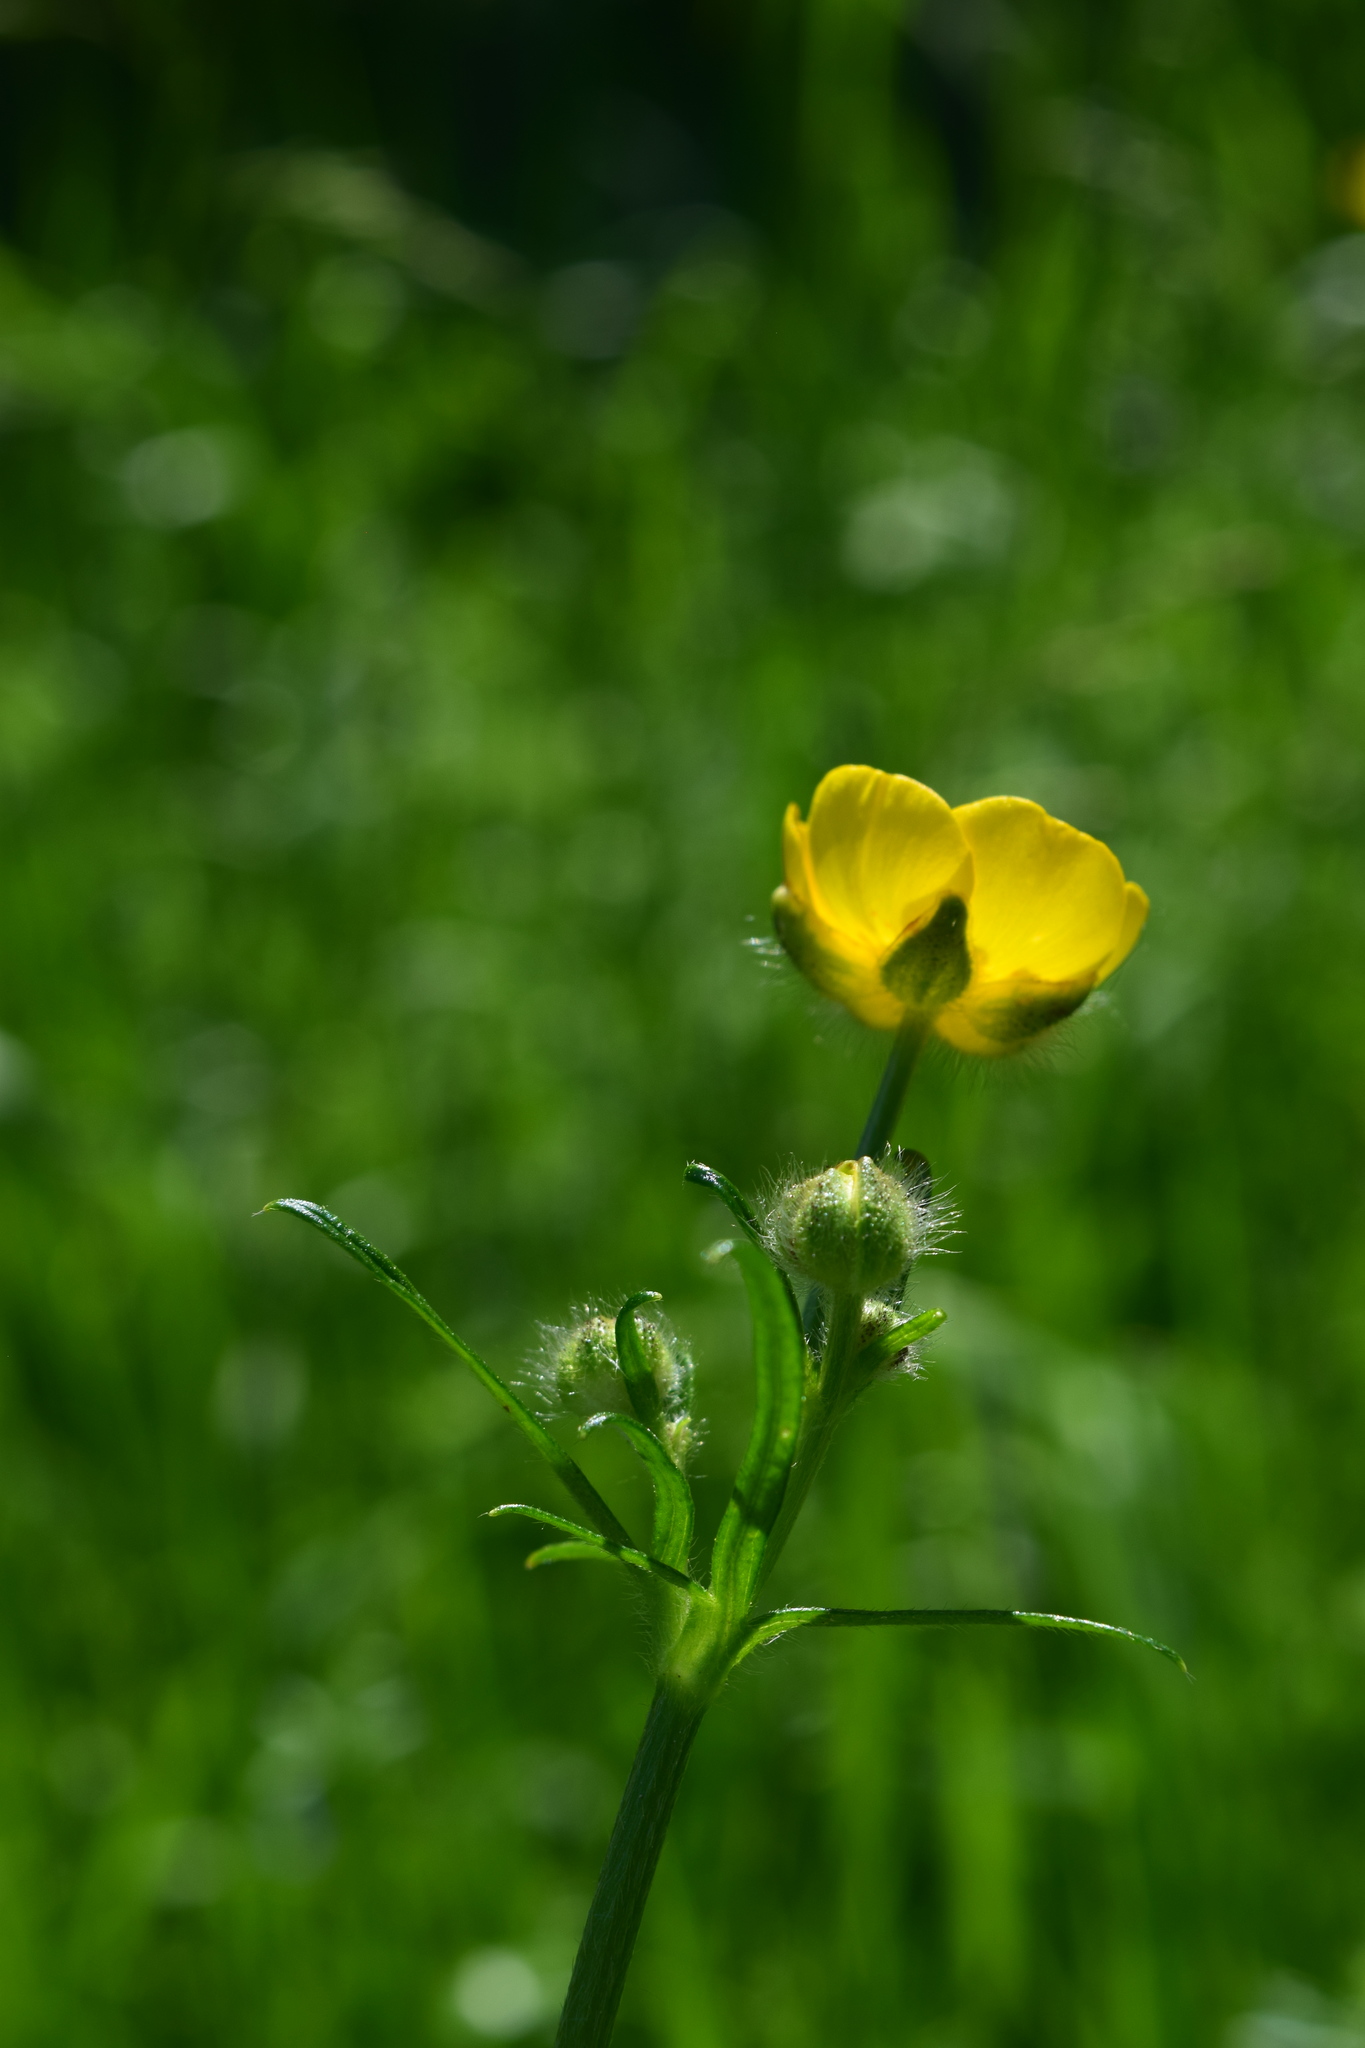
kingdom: Plantae
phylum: Tracheophyta
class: Magnoliopsida
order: Ranunculales
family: Ranunculaceae
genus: Ranunculus
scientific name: Ranunculus polyanthemos
